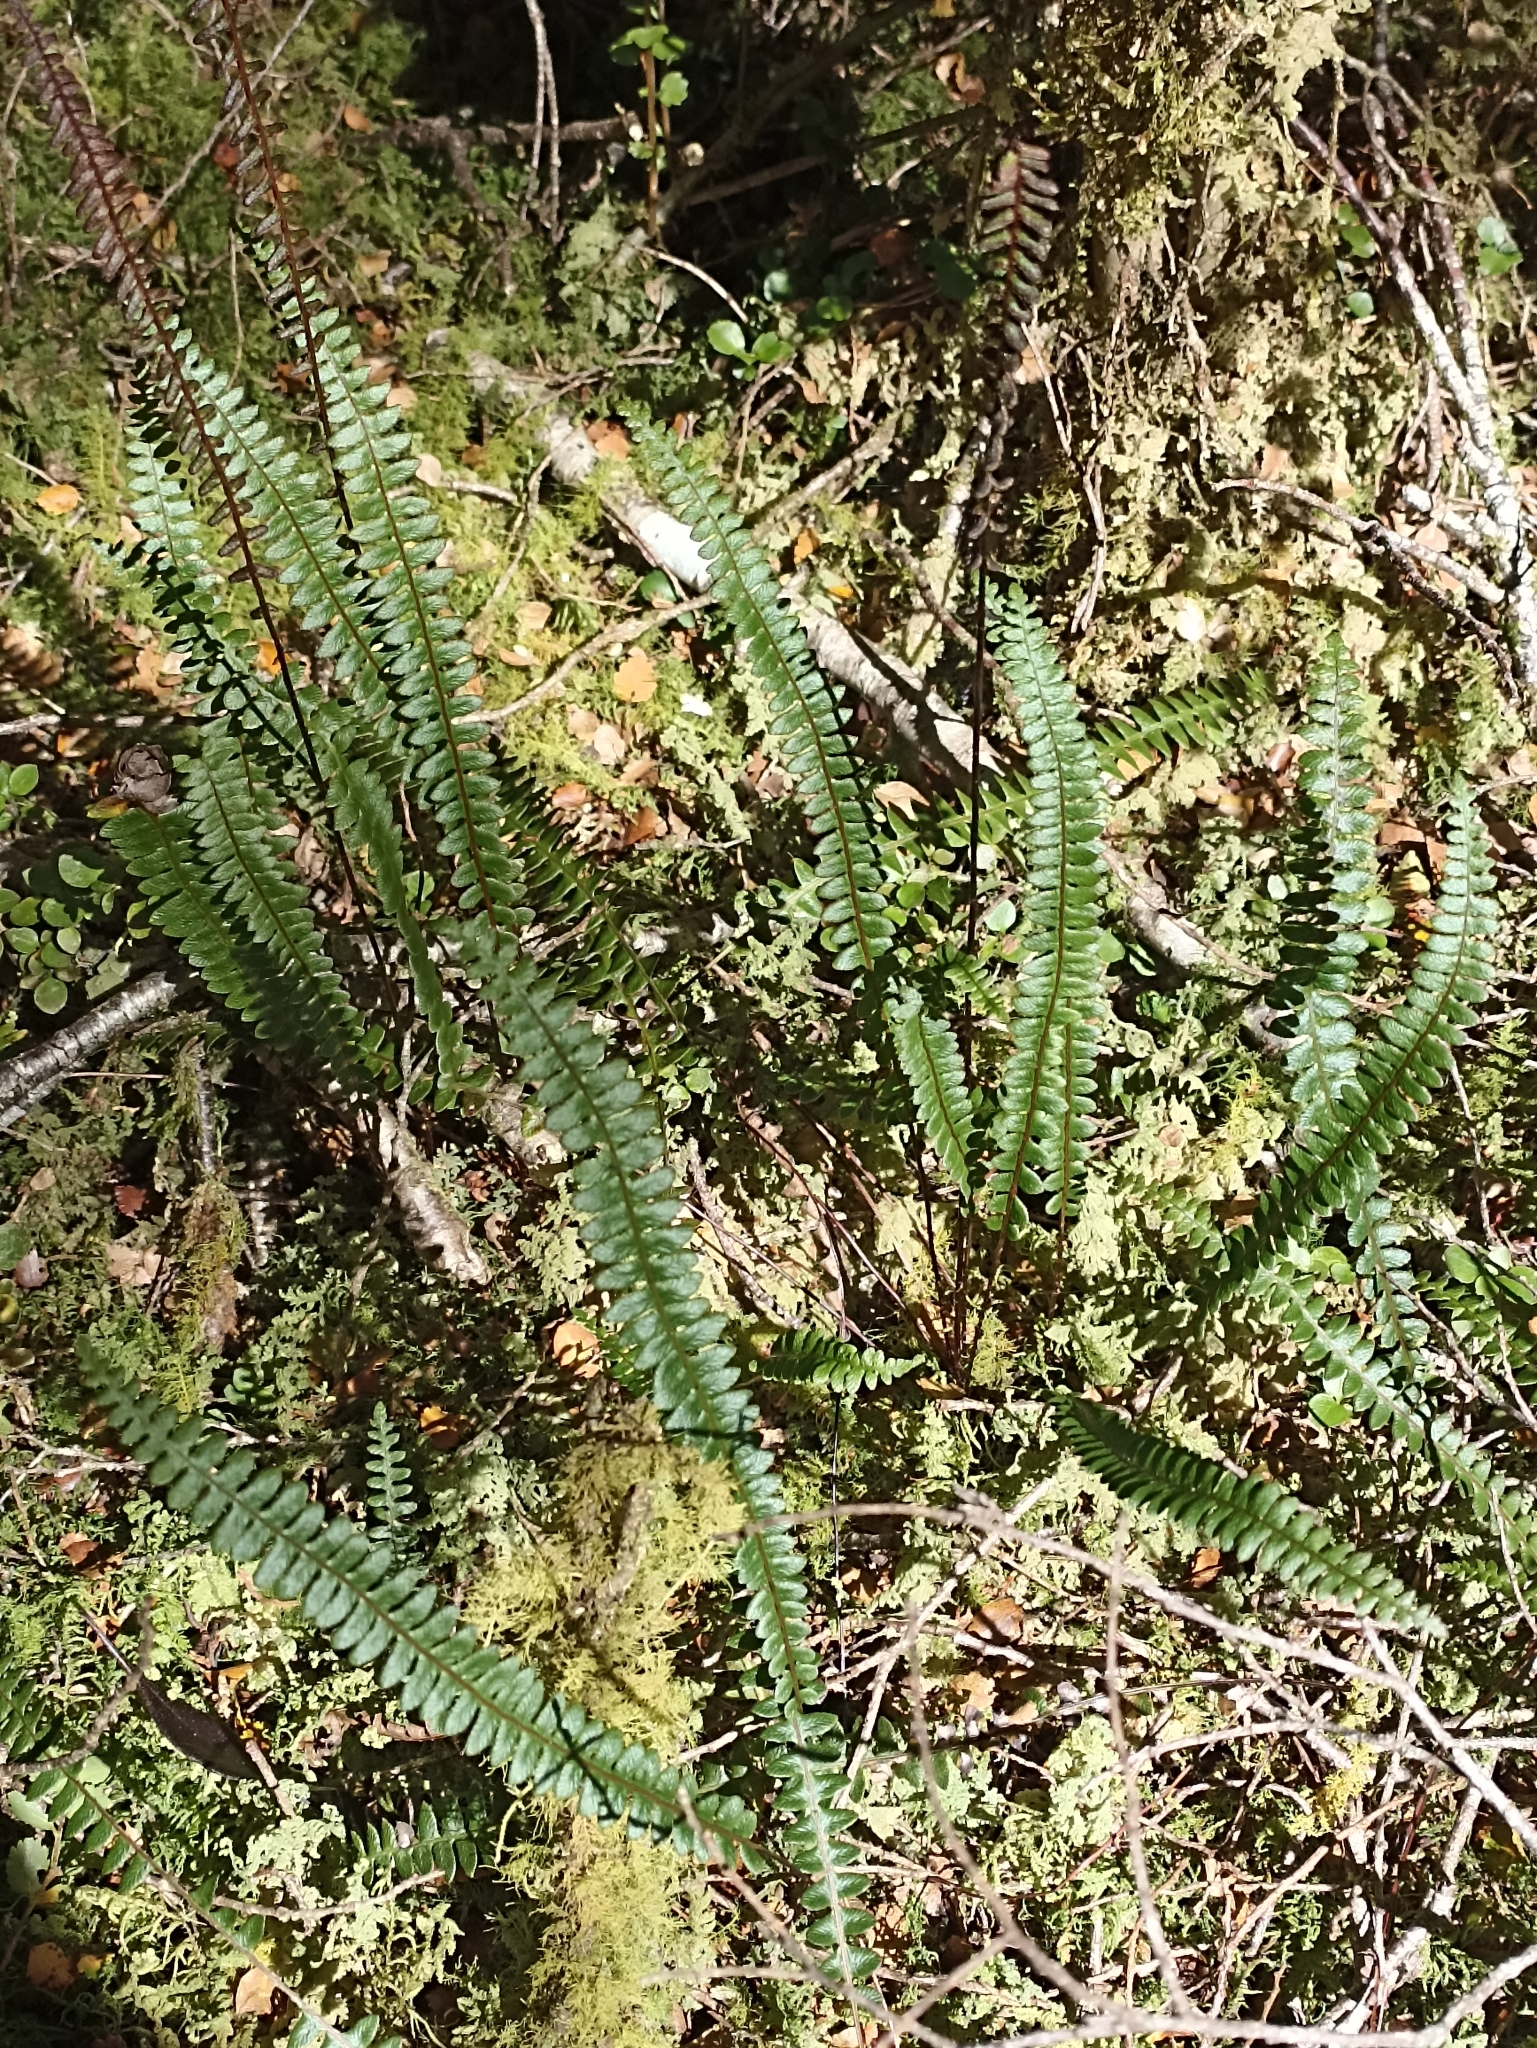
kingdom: Plantae
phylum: Tracheophyta
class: Polypodiopsida
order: Polypodiales
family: Blechnaceae
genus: Austroblechnum
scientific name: Austroblechnum penna-marina
